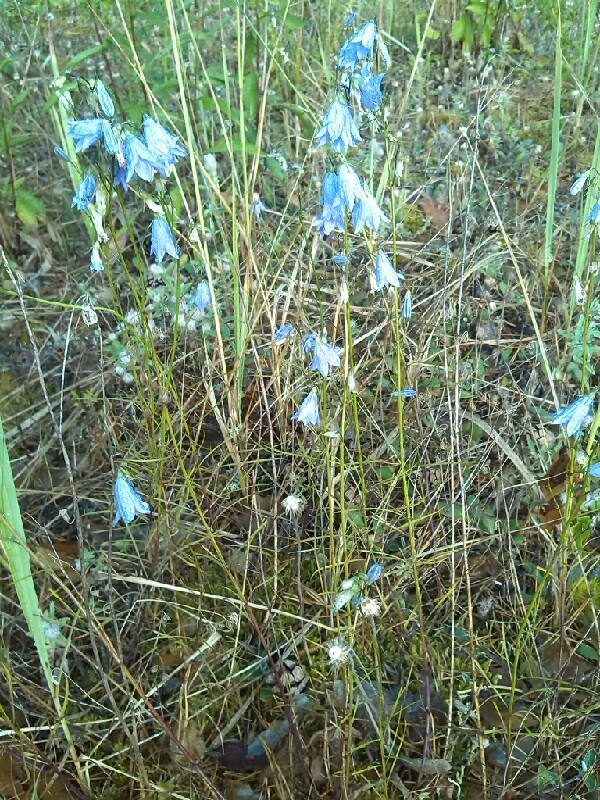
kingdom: Plantae
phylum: Tracheophyta
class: Magnoliopsida
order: Asterales
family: Campanulaceae
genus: Campanula
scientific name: Campanula rotundifolia
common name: Harebell
